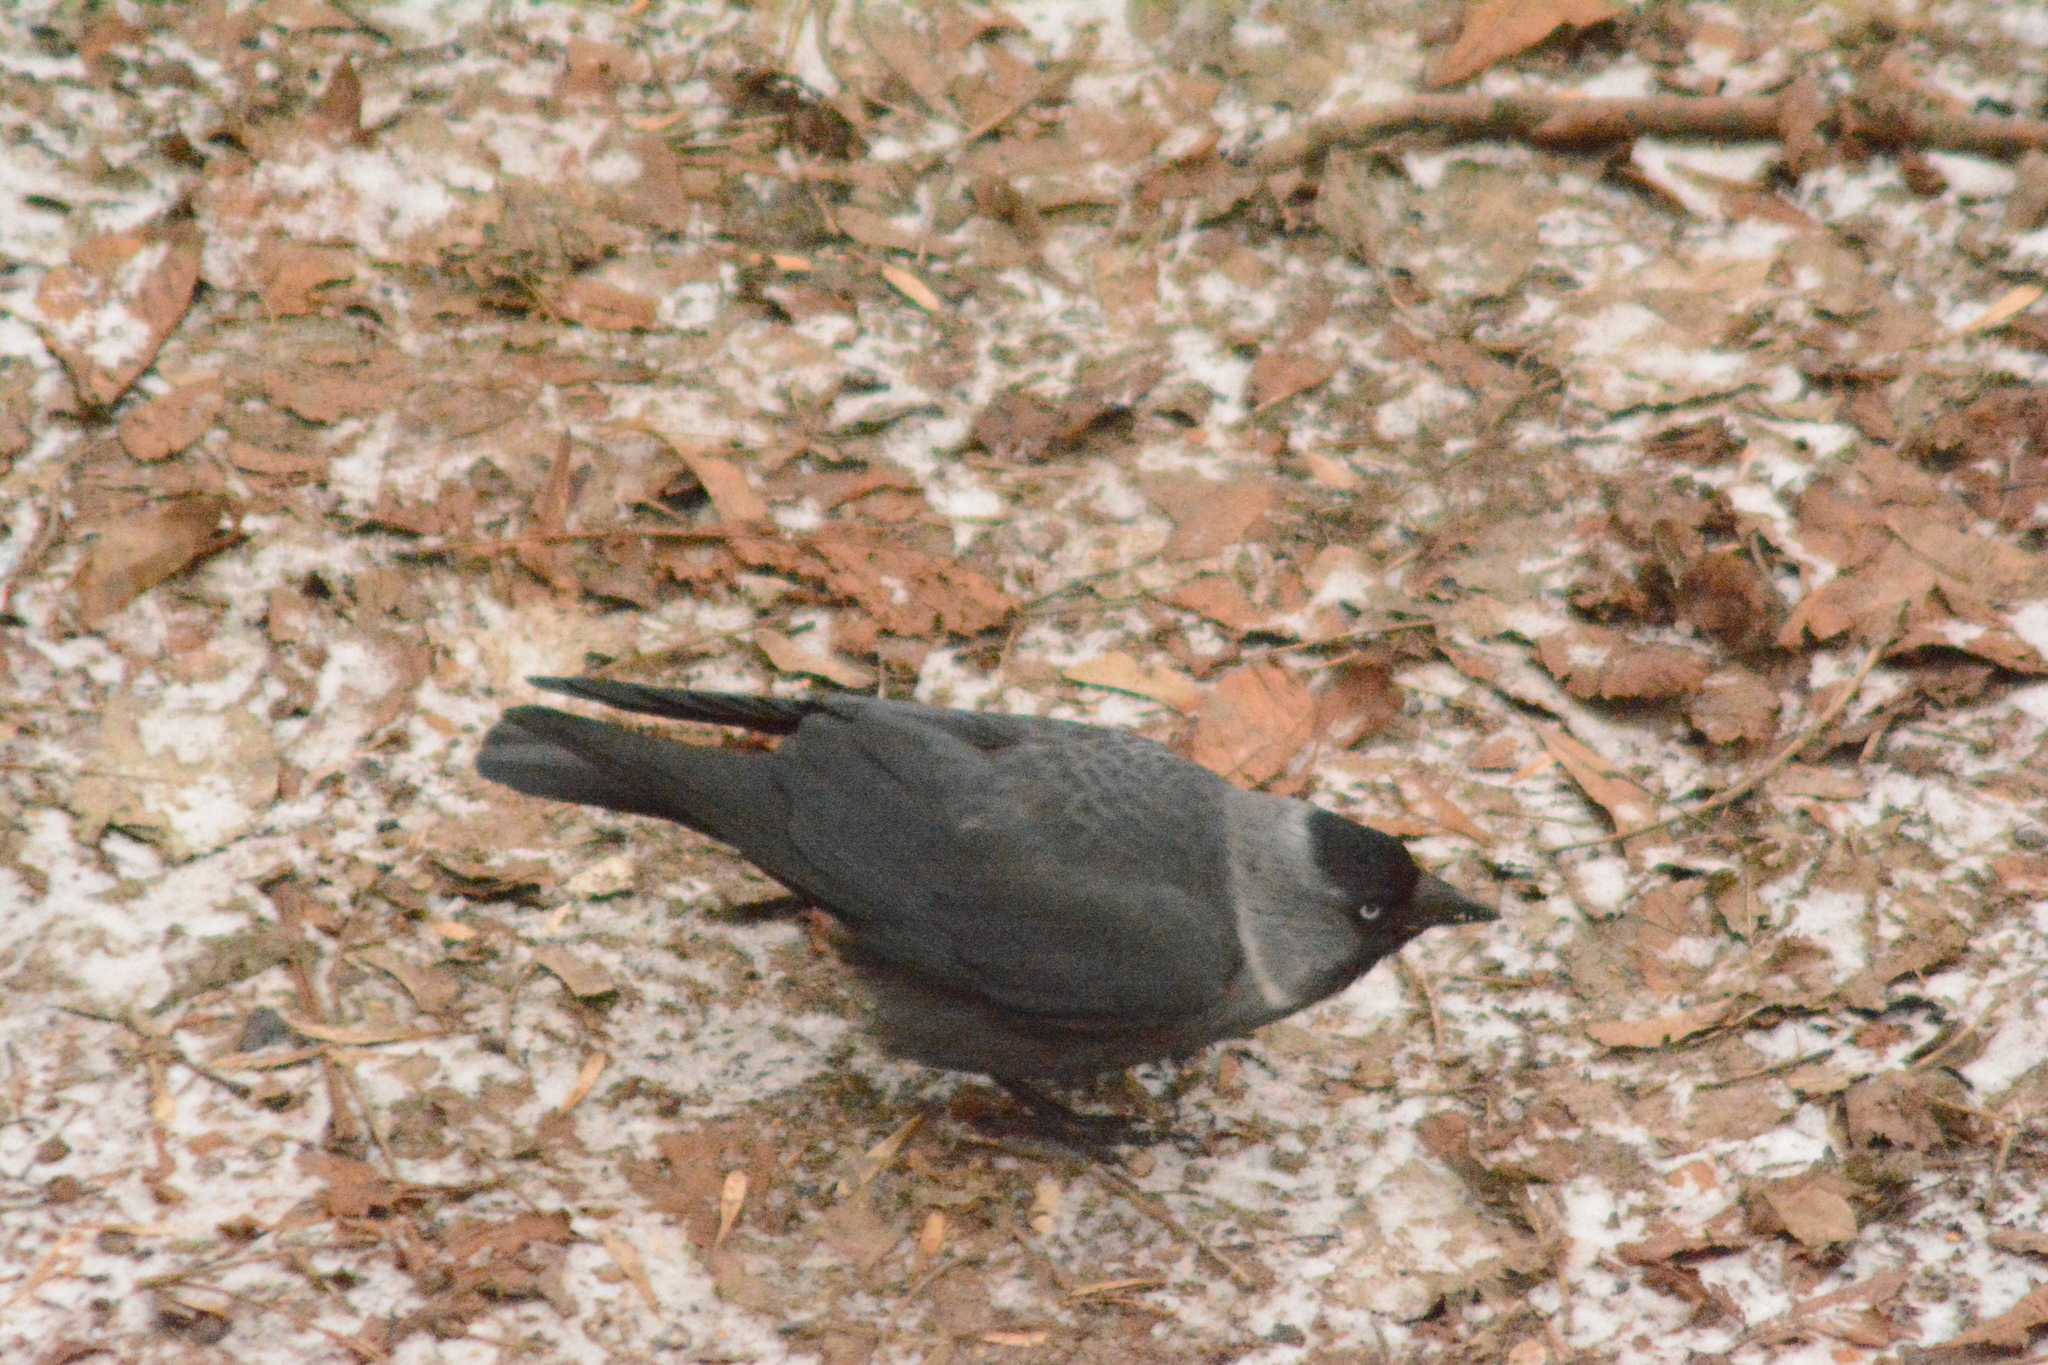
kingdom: Animalia
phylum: Chordata
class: Aves
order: Passeriformes
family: Corvidae
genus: Coloeus
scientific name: Coloeus monedula
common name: Western jackdaw
